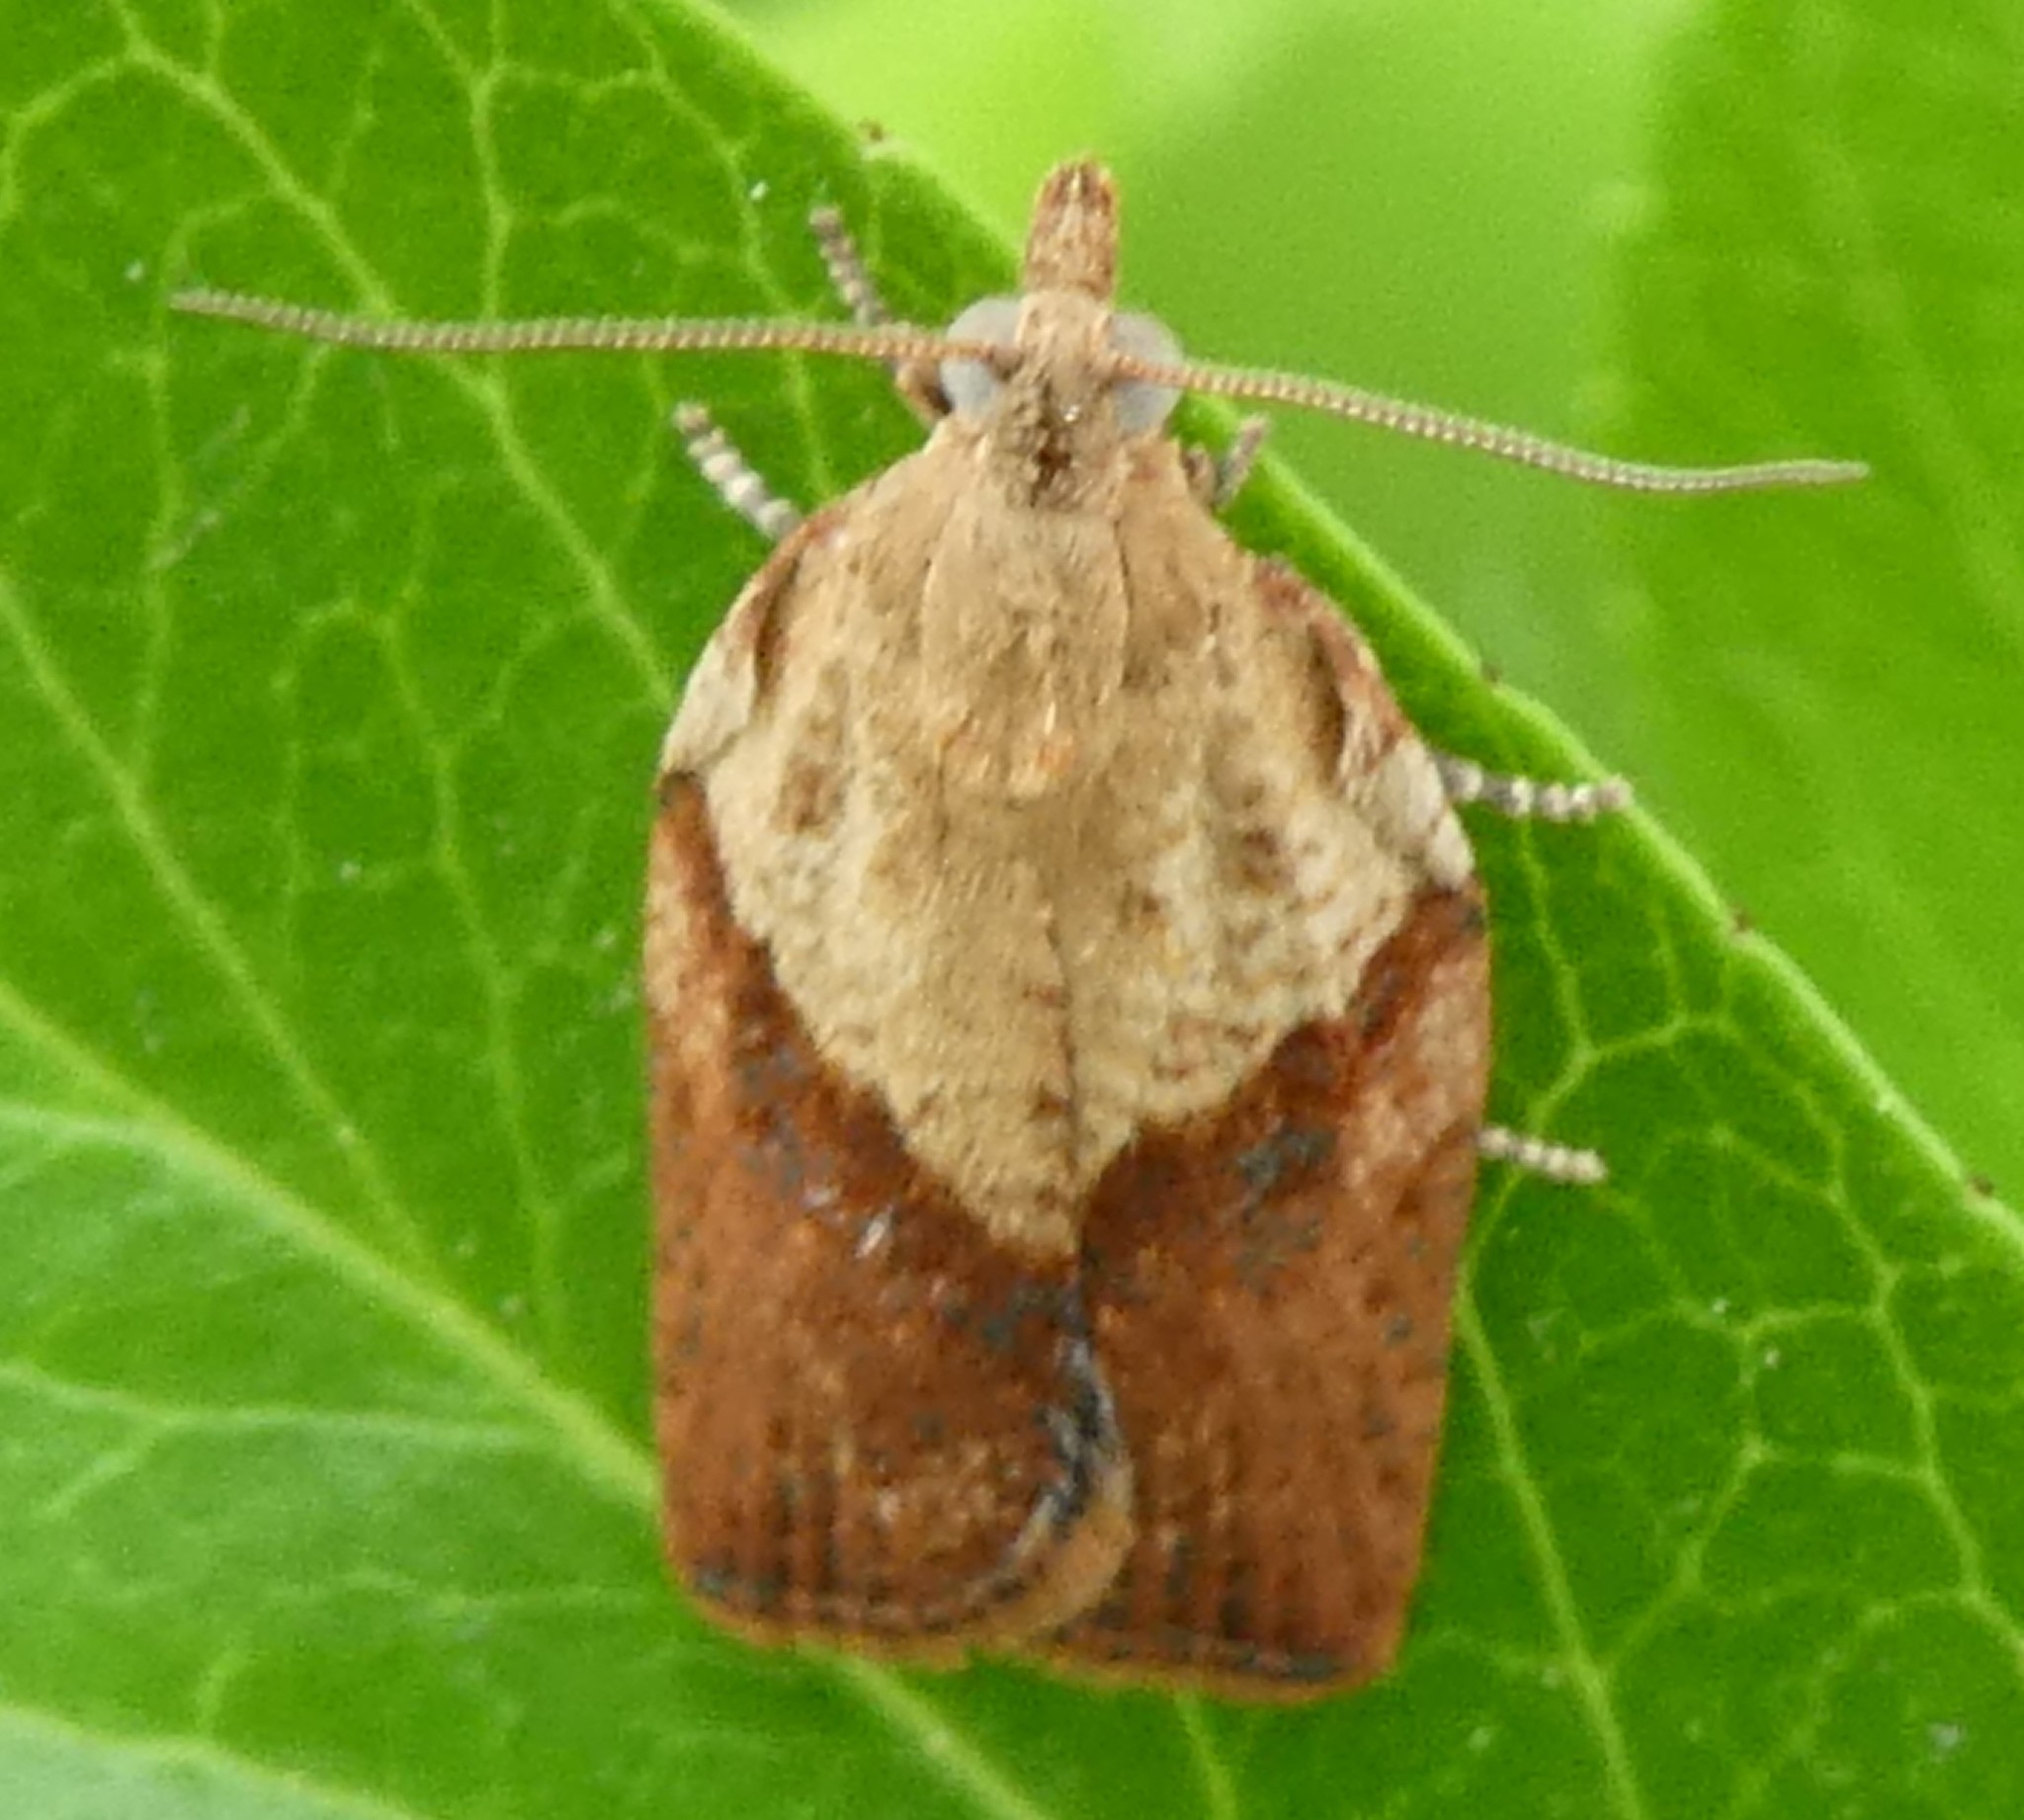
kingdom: Animalia
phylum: Arthropoda
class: Insecta
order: Lepidoptera
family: Tortricidae
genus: Epiphyas
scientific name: Epiphyas postvittana
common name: Light brown apple moth
